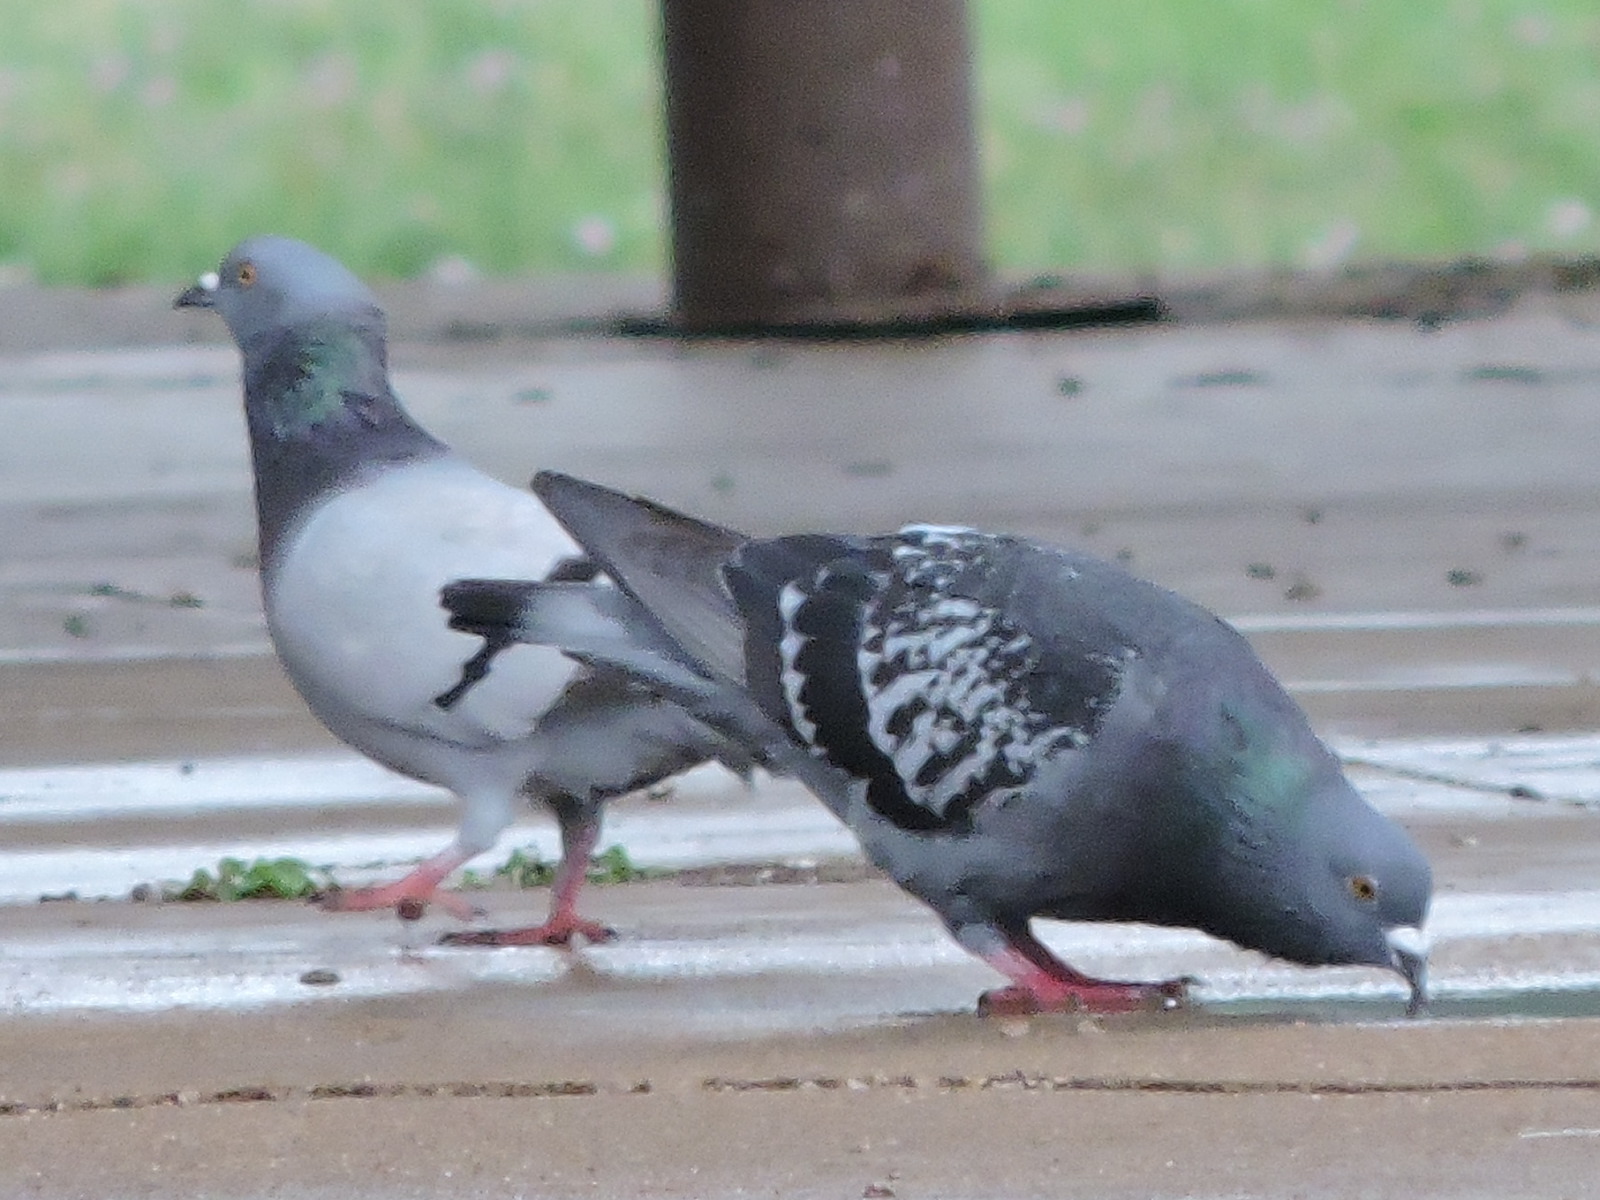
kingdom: Animalia
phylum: Chordata
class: Aves
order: Columbiformes
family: Columbidae
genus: Columba
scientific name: Columba livia
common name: Rock pigeon
